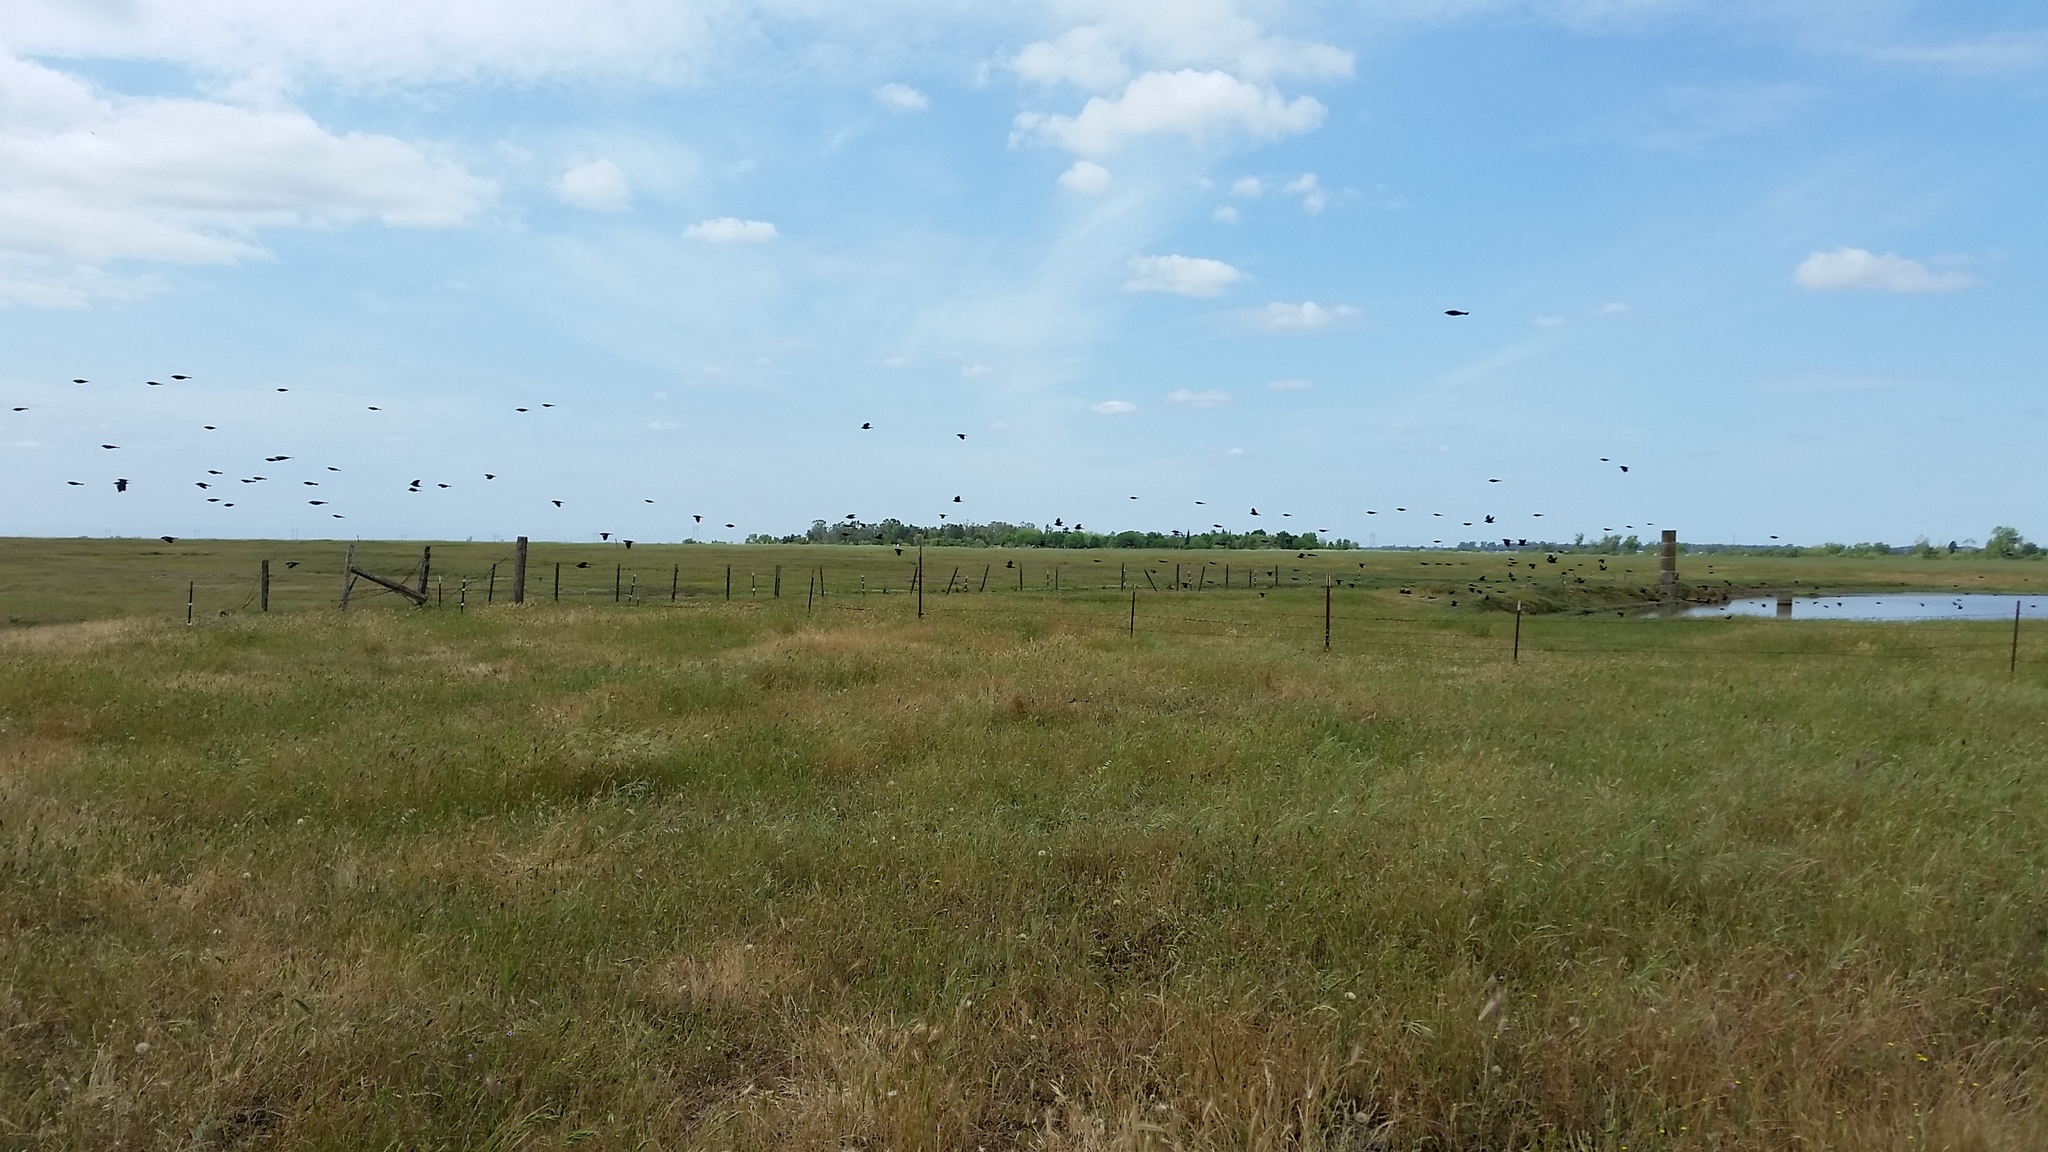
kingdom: Animalia
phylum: Chordata
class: Aves
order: Passeriformes
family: Icteridae
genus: Agelaius
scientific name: Agelaius tricolor
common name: Tricolored blackbird
